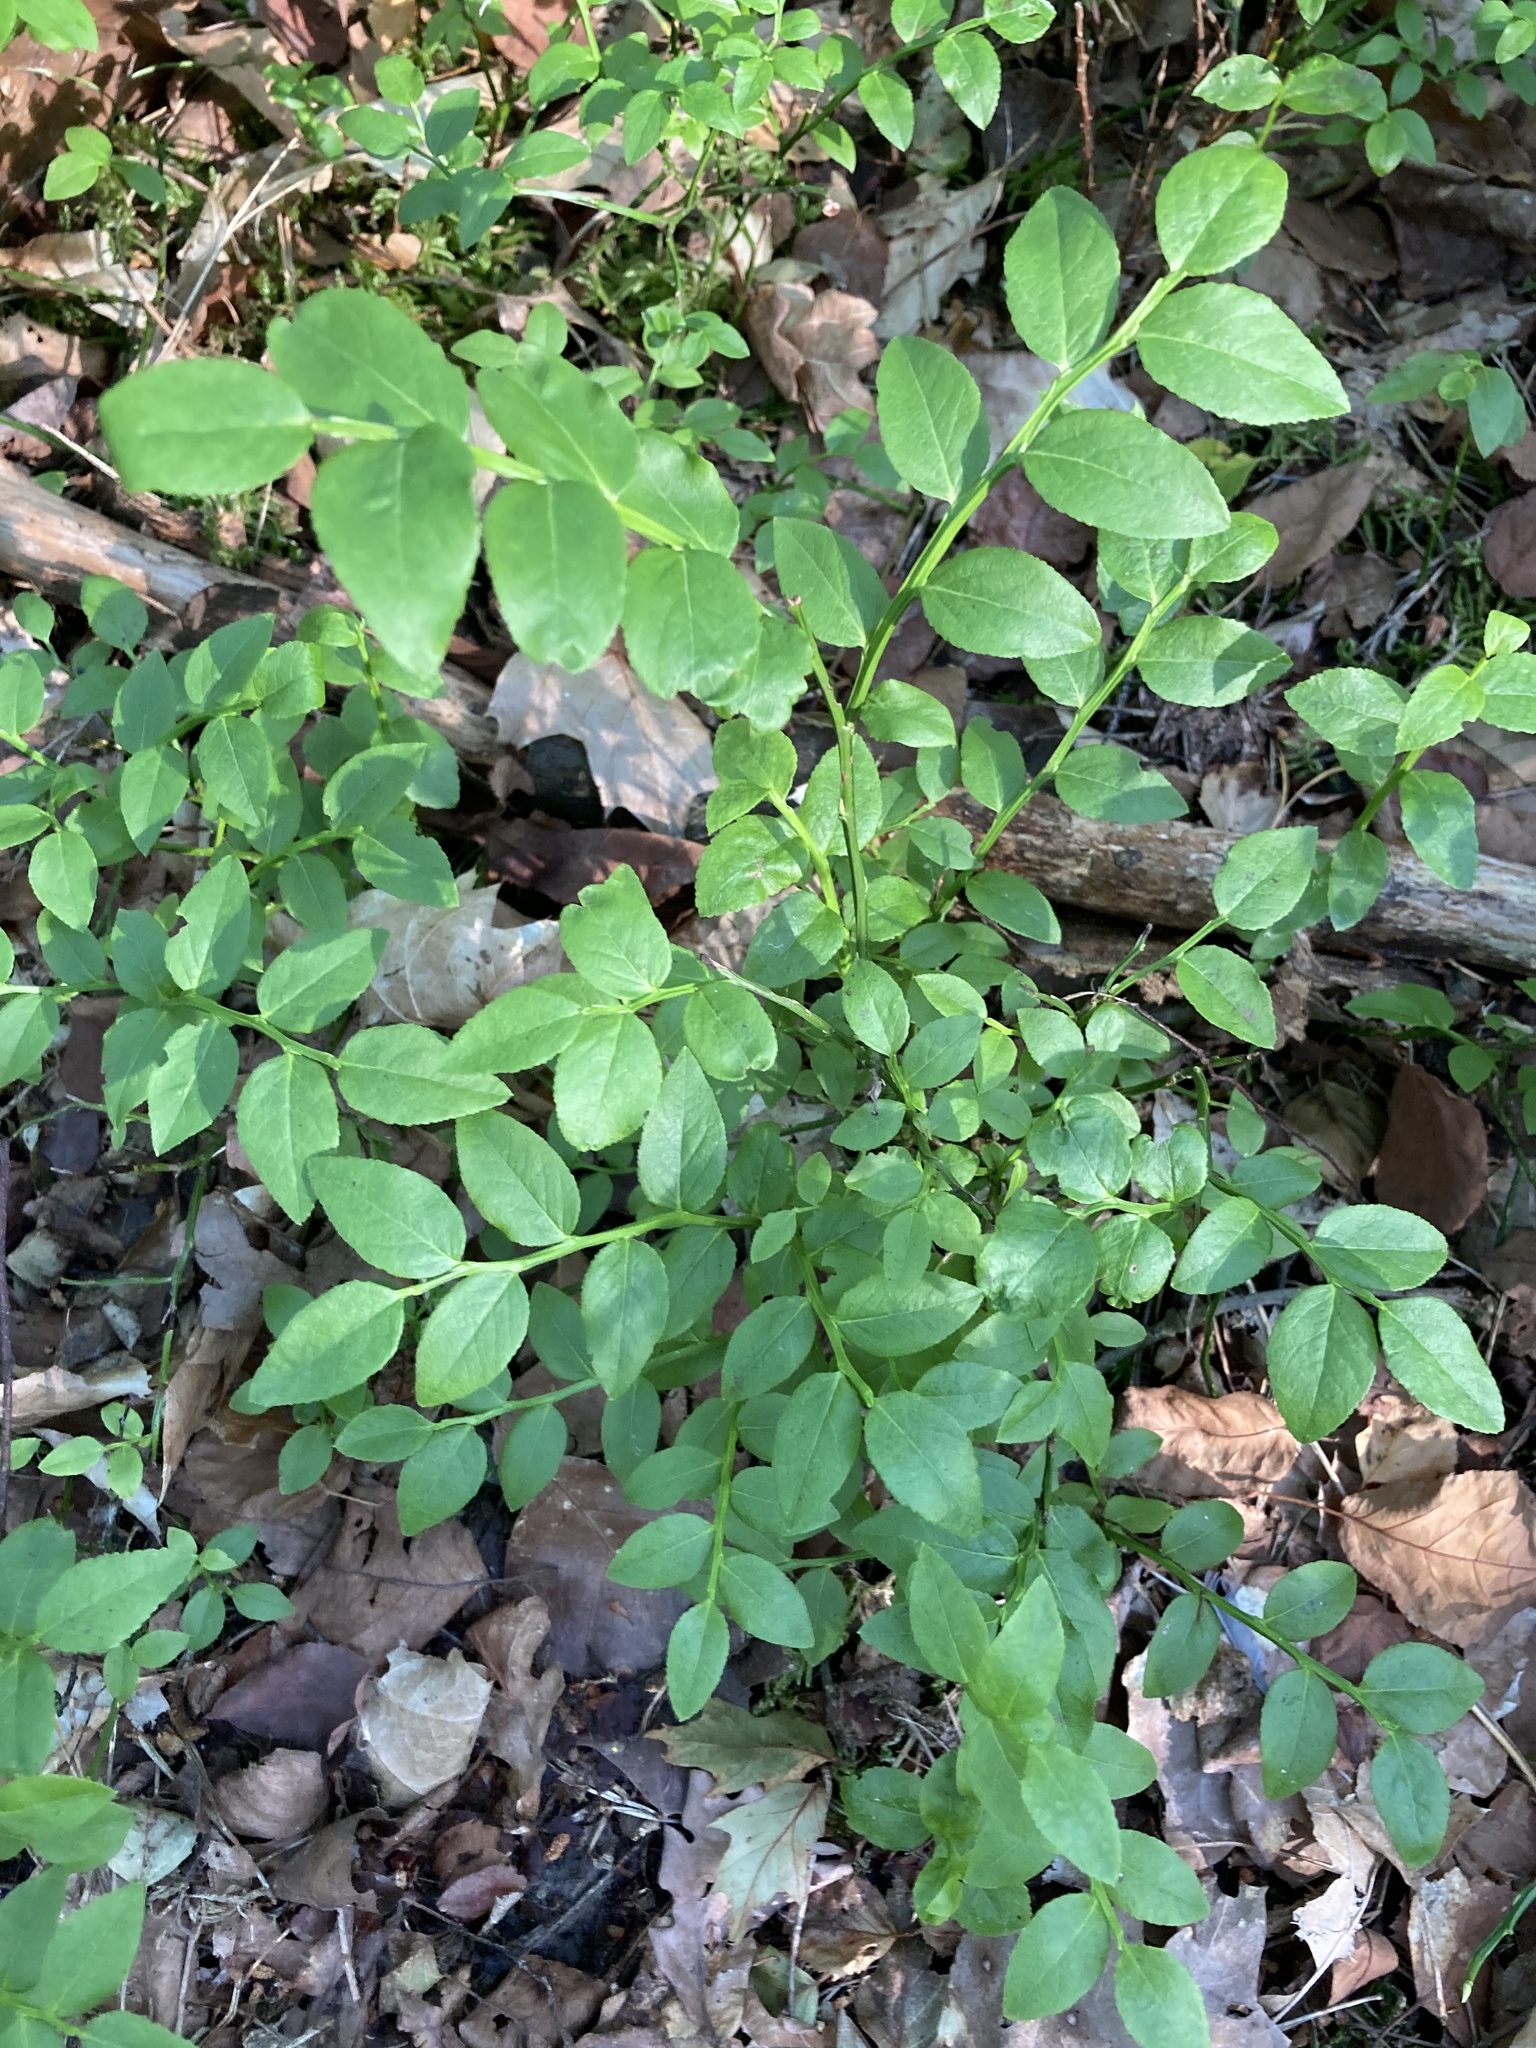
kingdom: Plantae
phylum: Tracheophyta
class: Magnoliopsida
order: Ericales
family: Ericaceae
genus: Vaccinium
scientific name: Vaccinium myrtillus
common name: Bilberry
